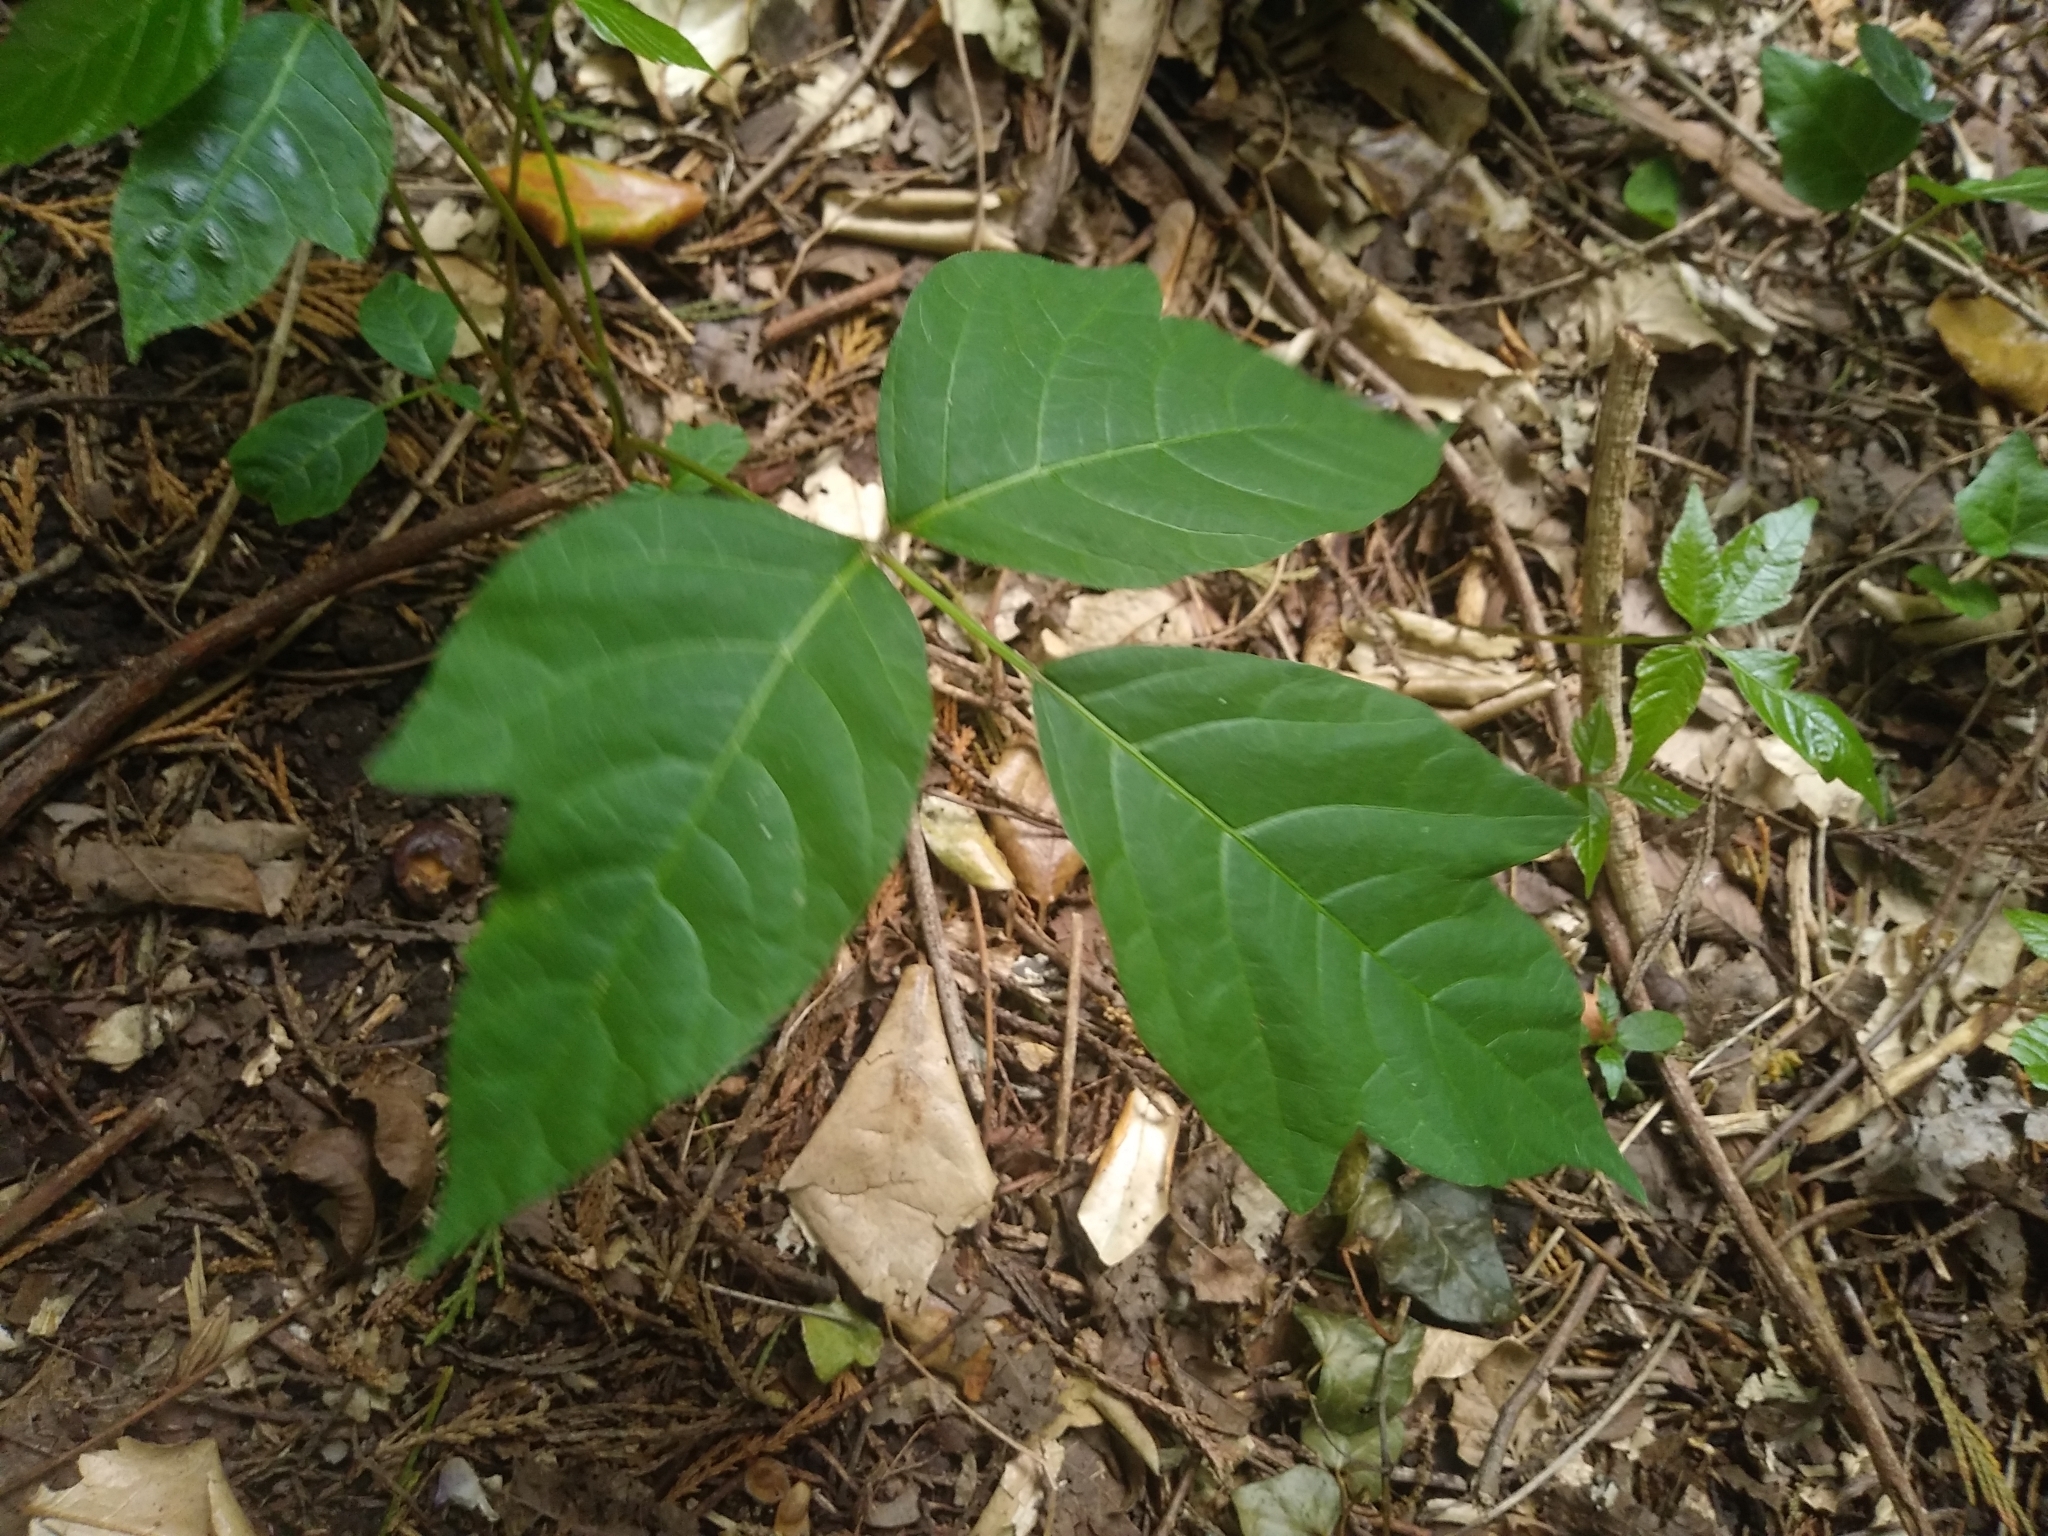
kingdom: Plantae
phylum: Tracheophyta
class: Magnoliopsida
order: Sapindales
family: Anacardiaceae
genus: Toxicodendron
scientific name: Toxicodendron radicans
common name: Poison ivy
